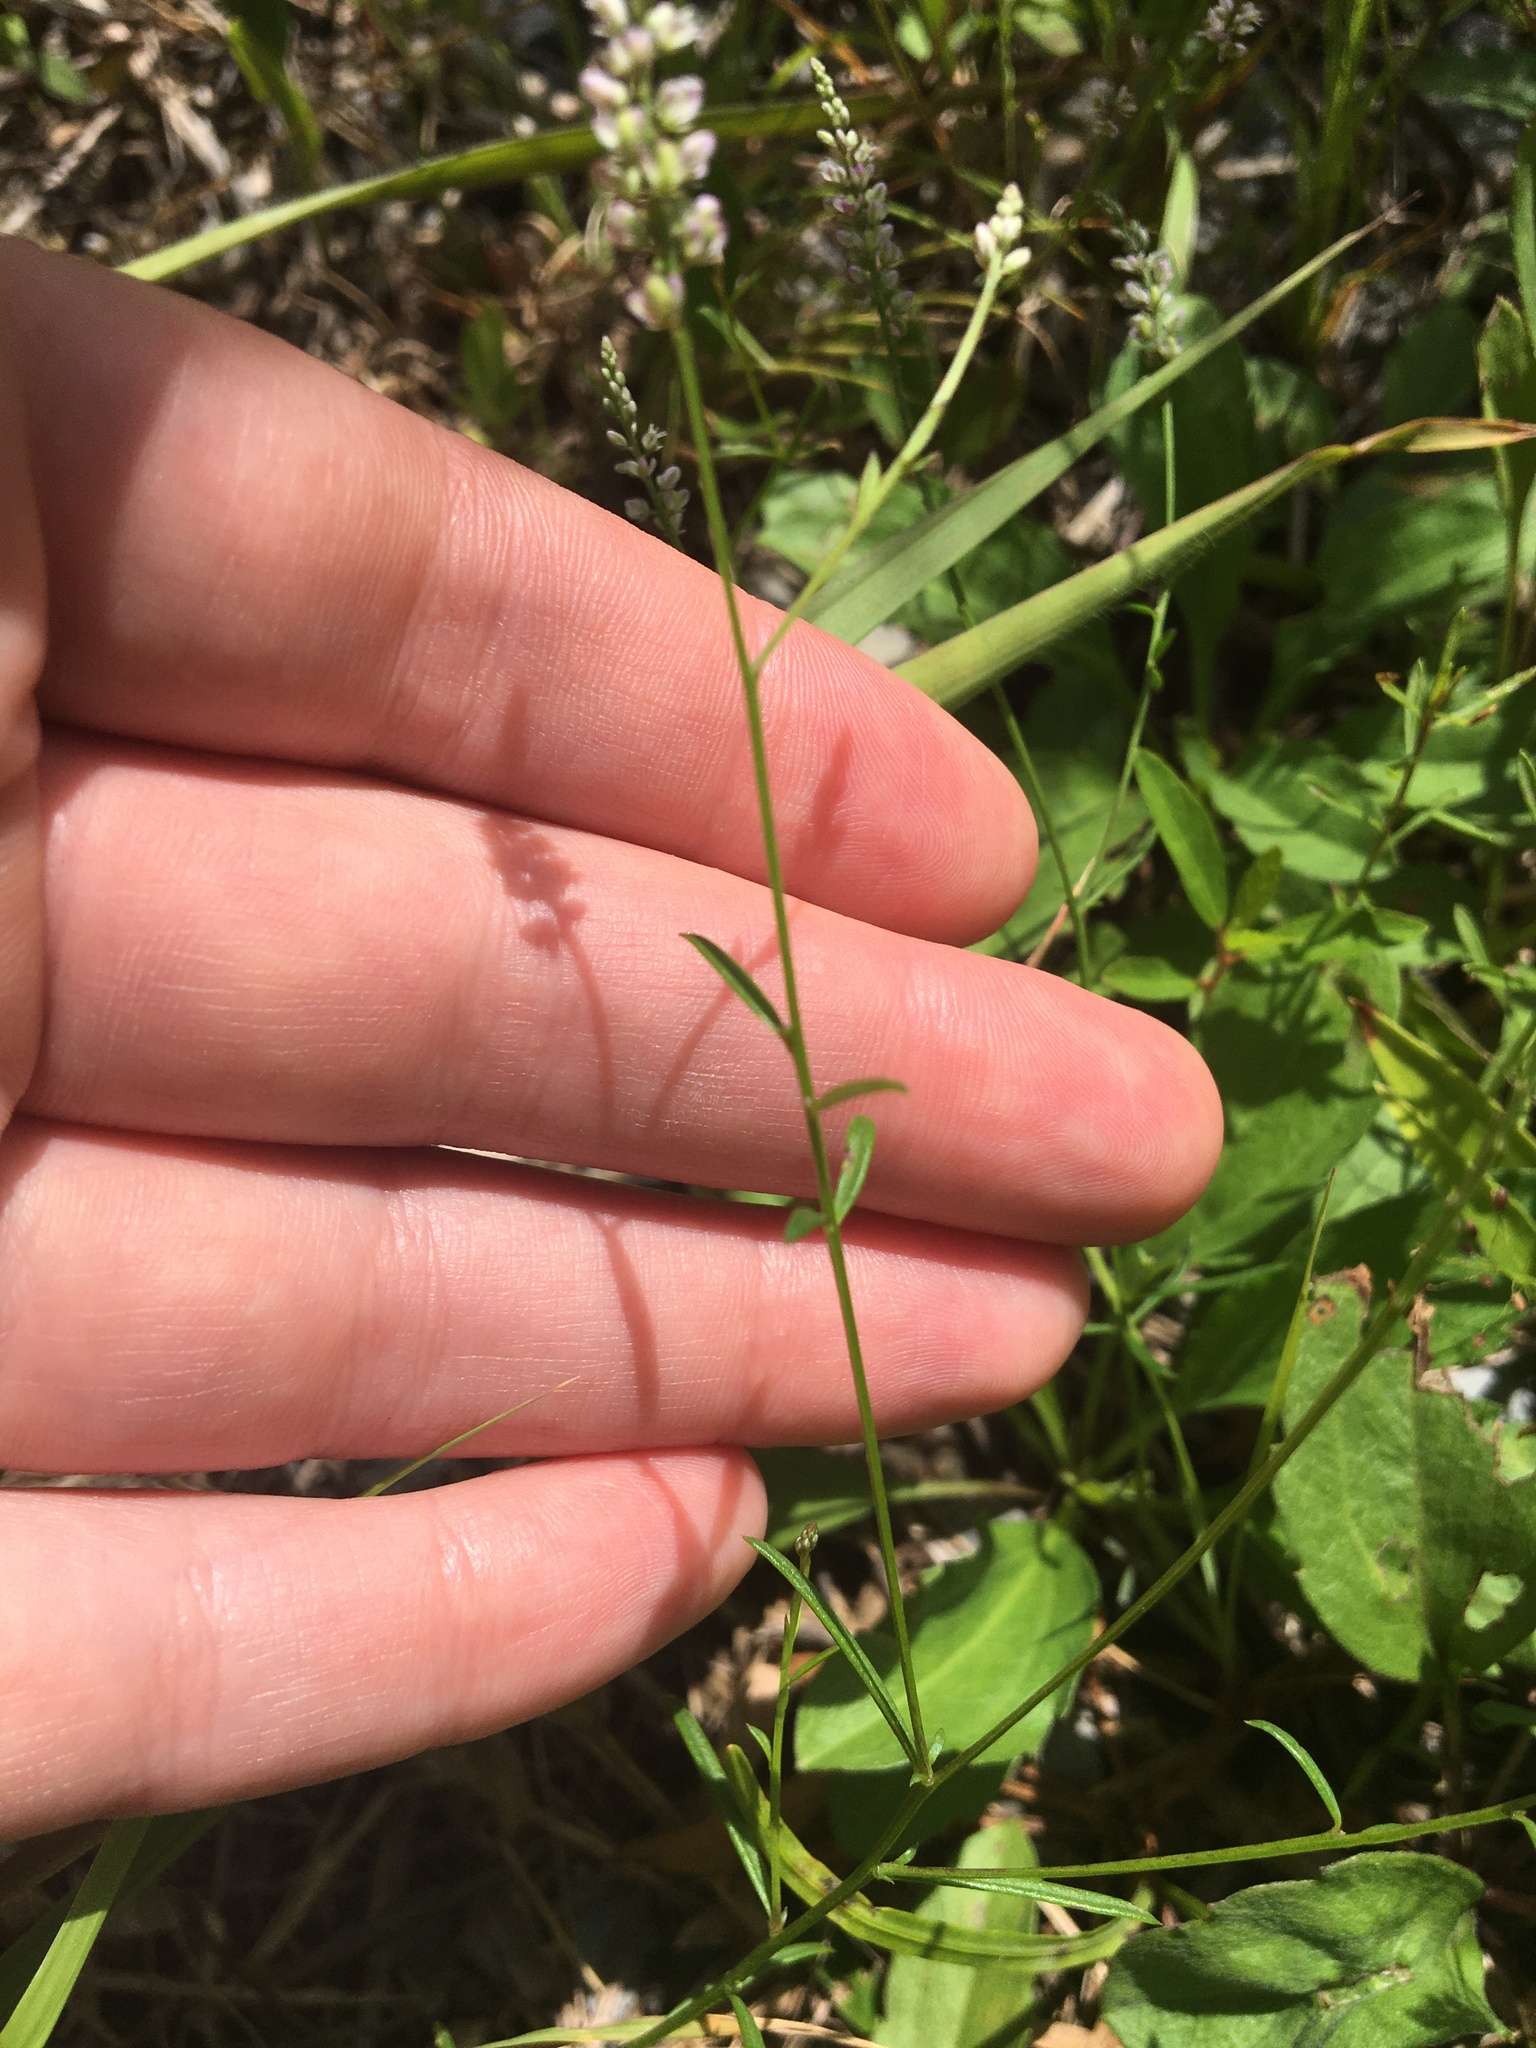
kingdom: Plantae
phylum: Tracheophyta
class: Magnoliopsida
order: Fabales
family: Polygalaceae
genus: Polygala
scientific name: Polygala ambigua
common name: Alternate milkwort
